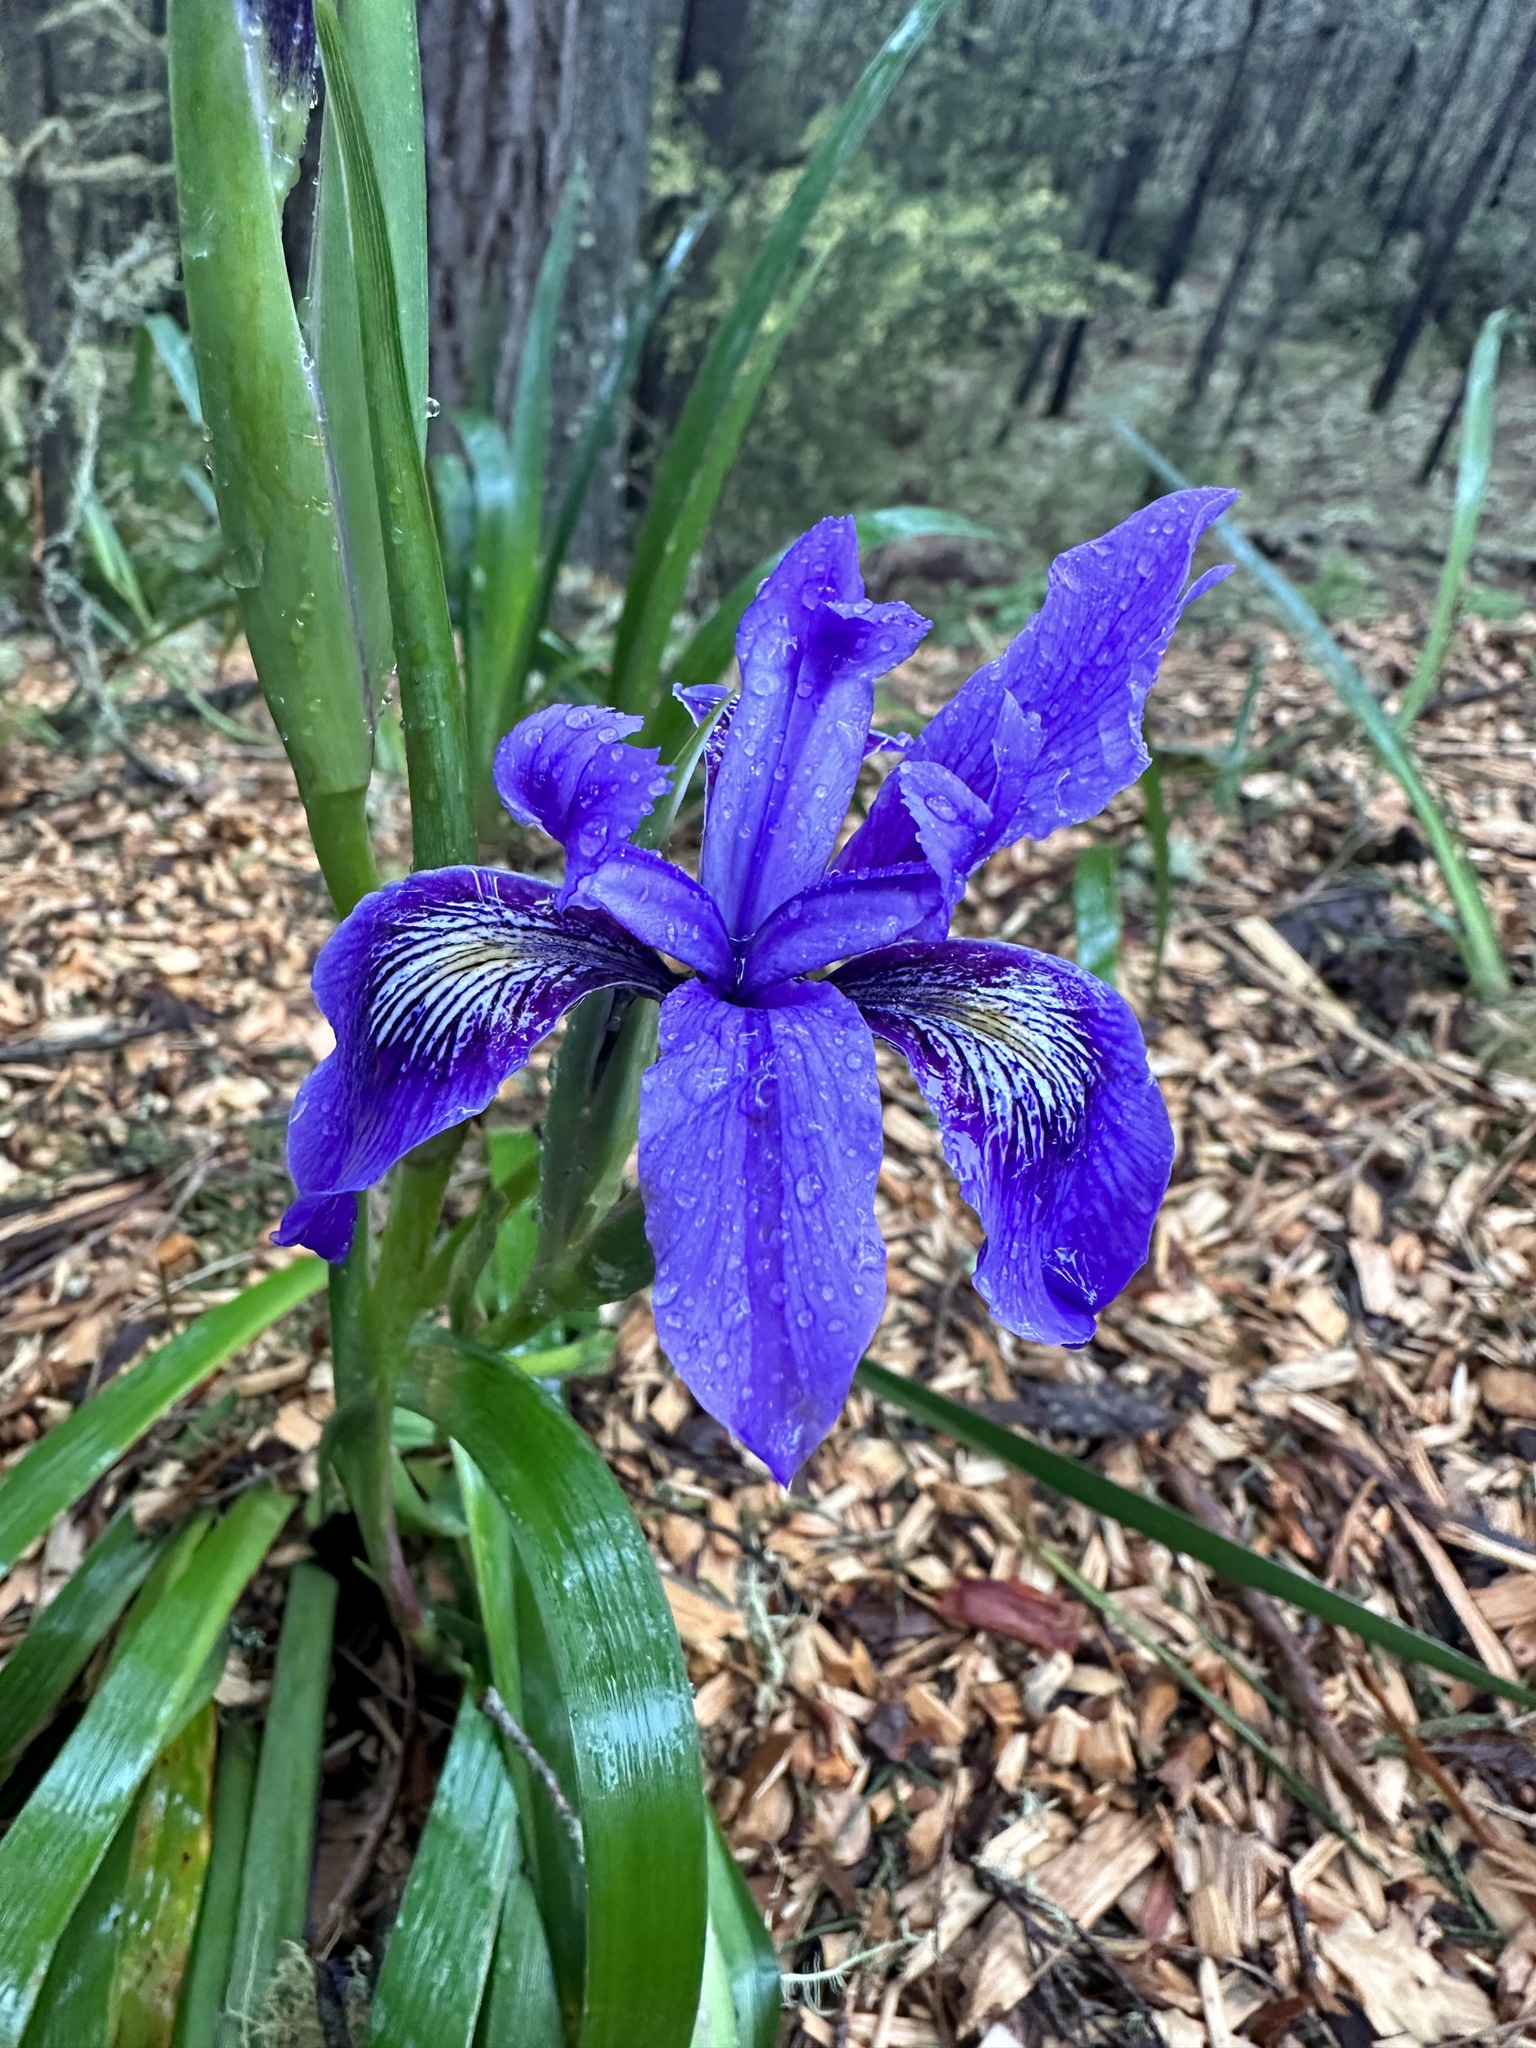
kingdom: Plantae
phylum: Tracheophyta
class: Liliopsida
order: Asparagales
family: Iridaceae
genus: Iris
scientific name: Iris douglasiana
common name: Marin iris
